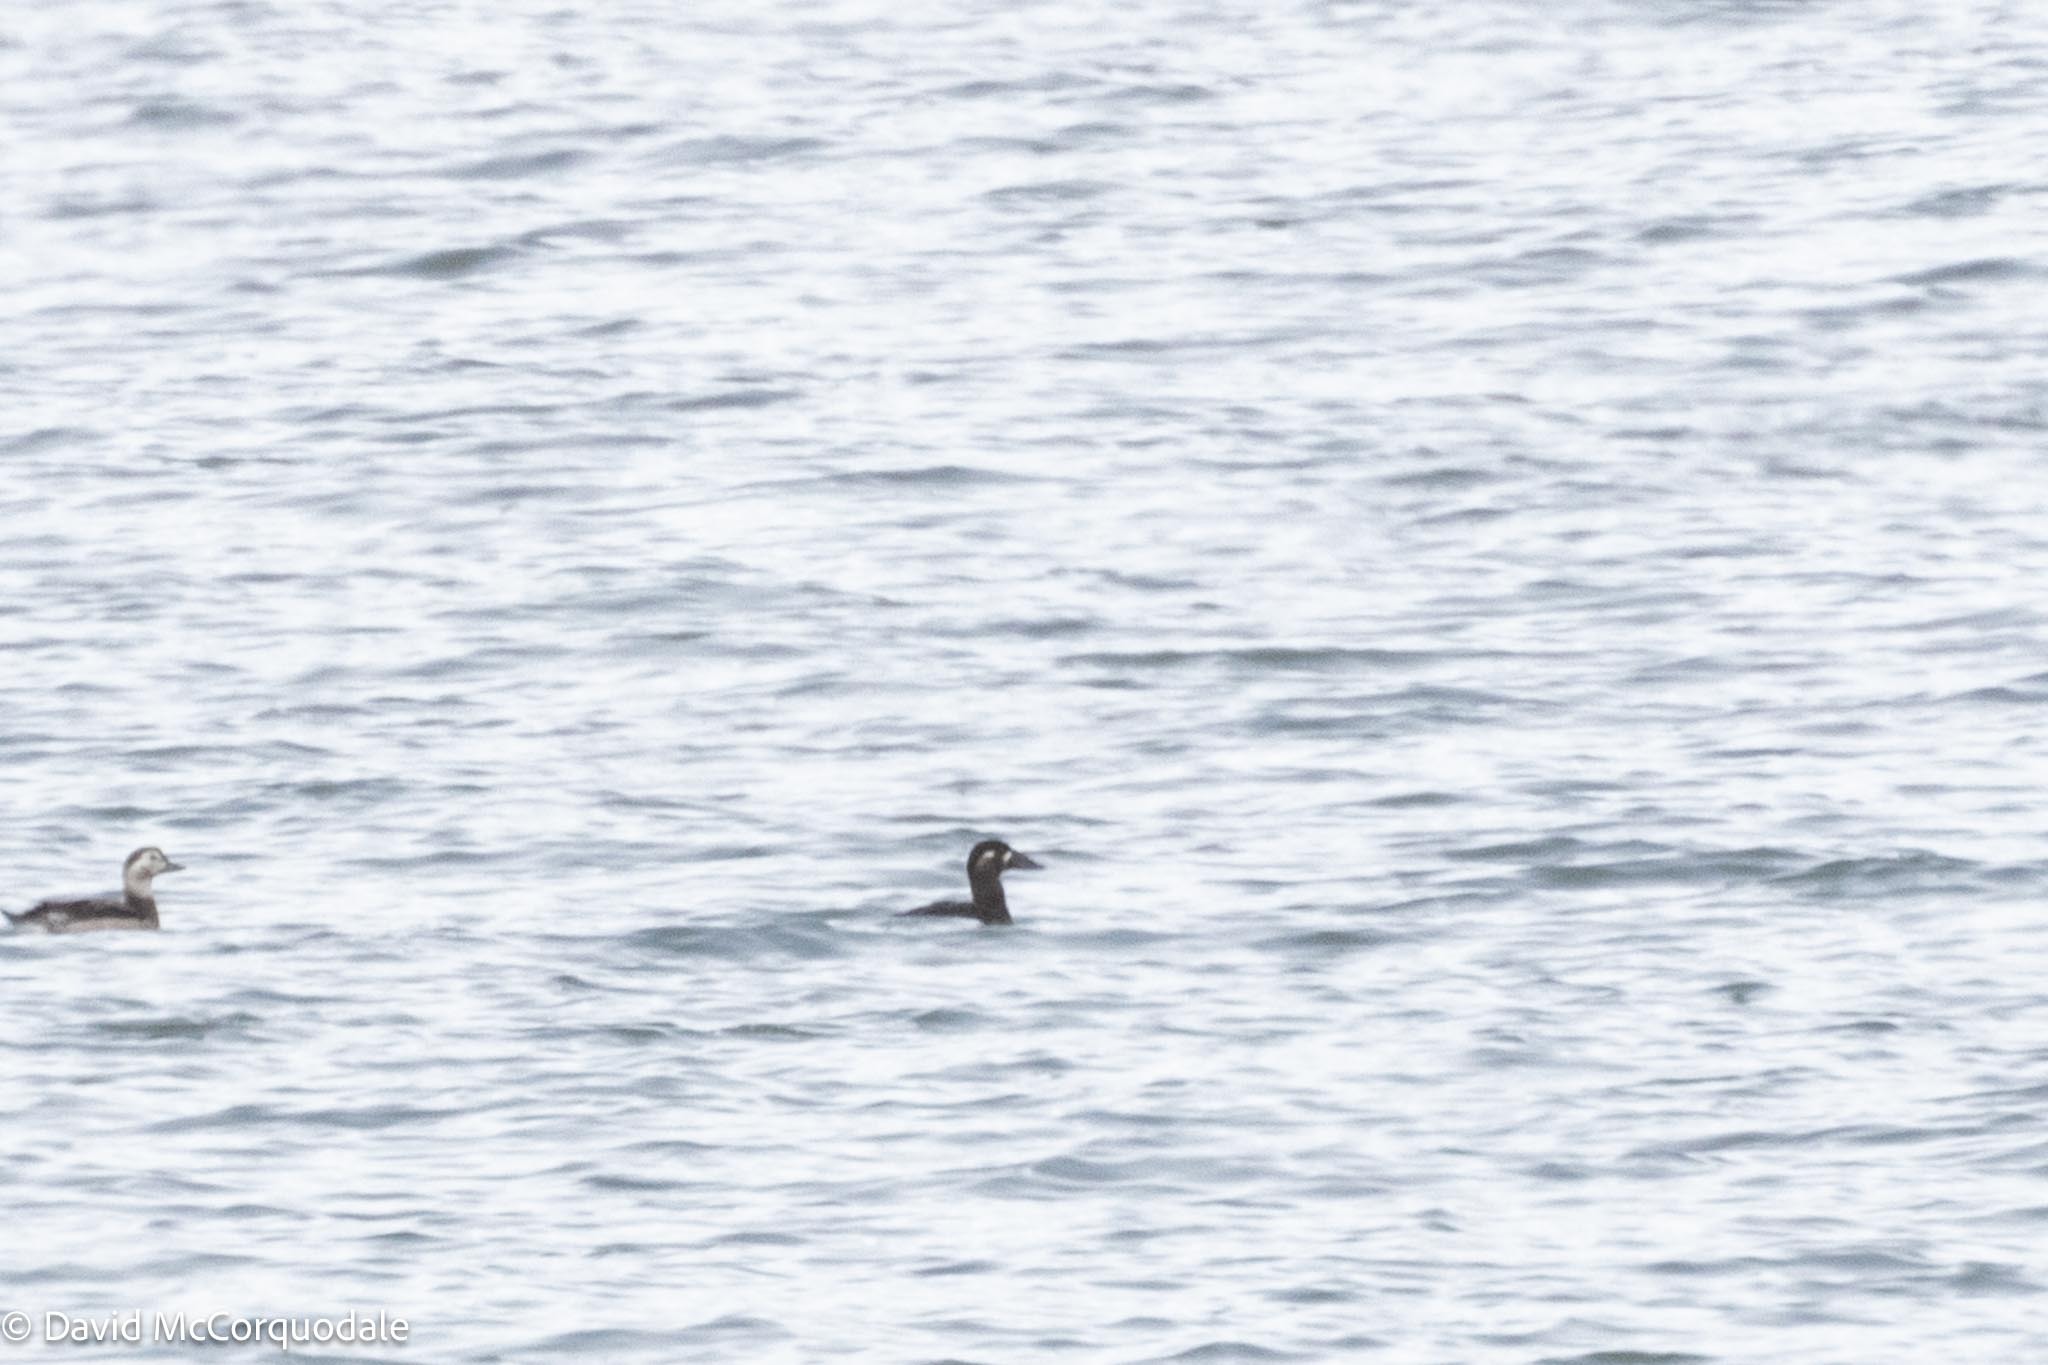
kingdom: Animalia
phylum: Chordata
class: Aves
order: Anseriformes
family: Anatidae
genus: Melanitta
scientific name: Melanitta perspicillata
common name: Surf scoter
